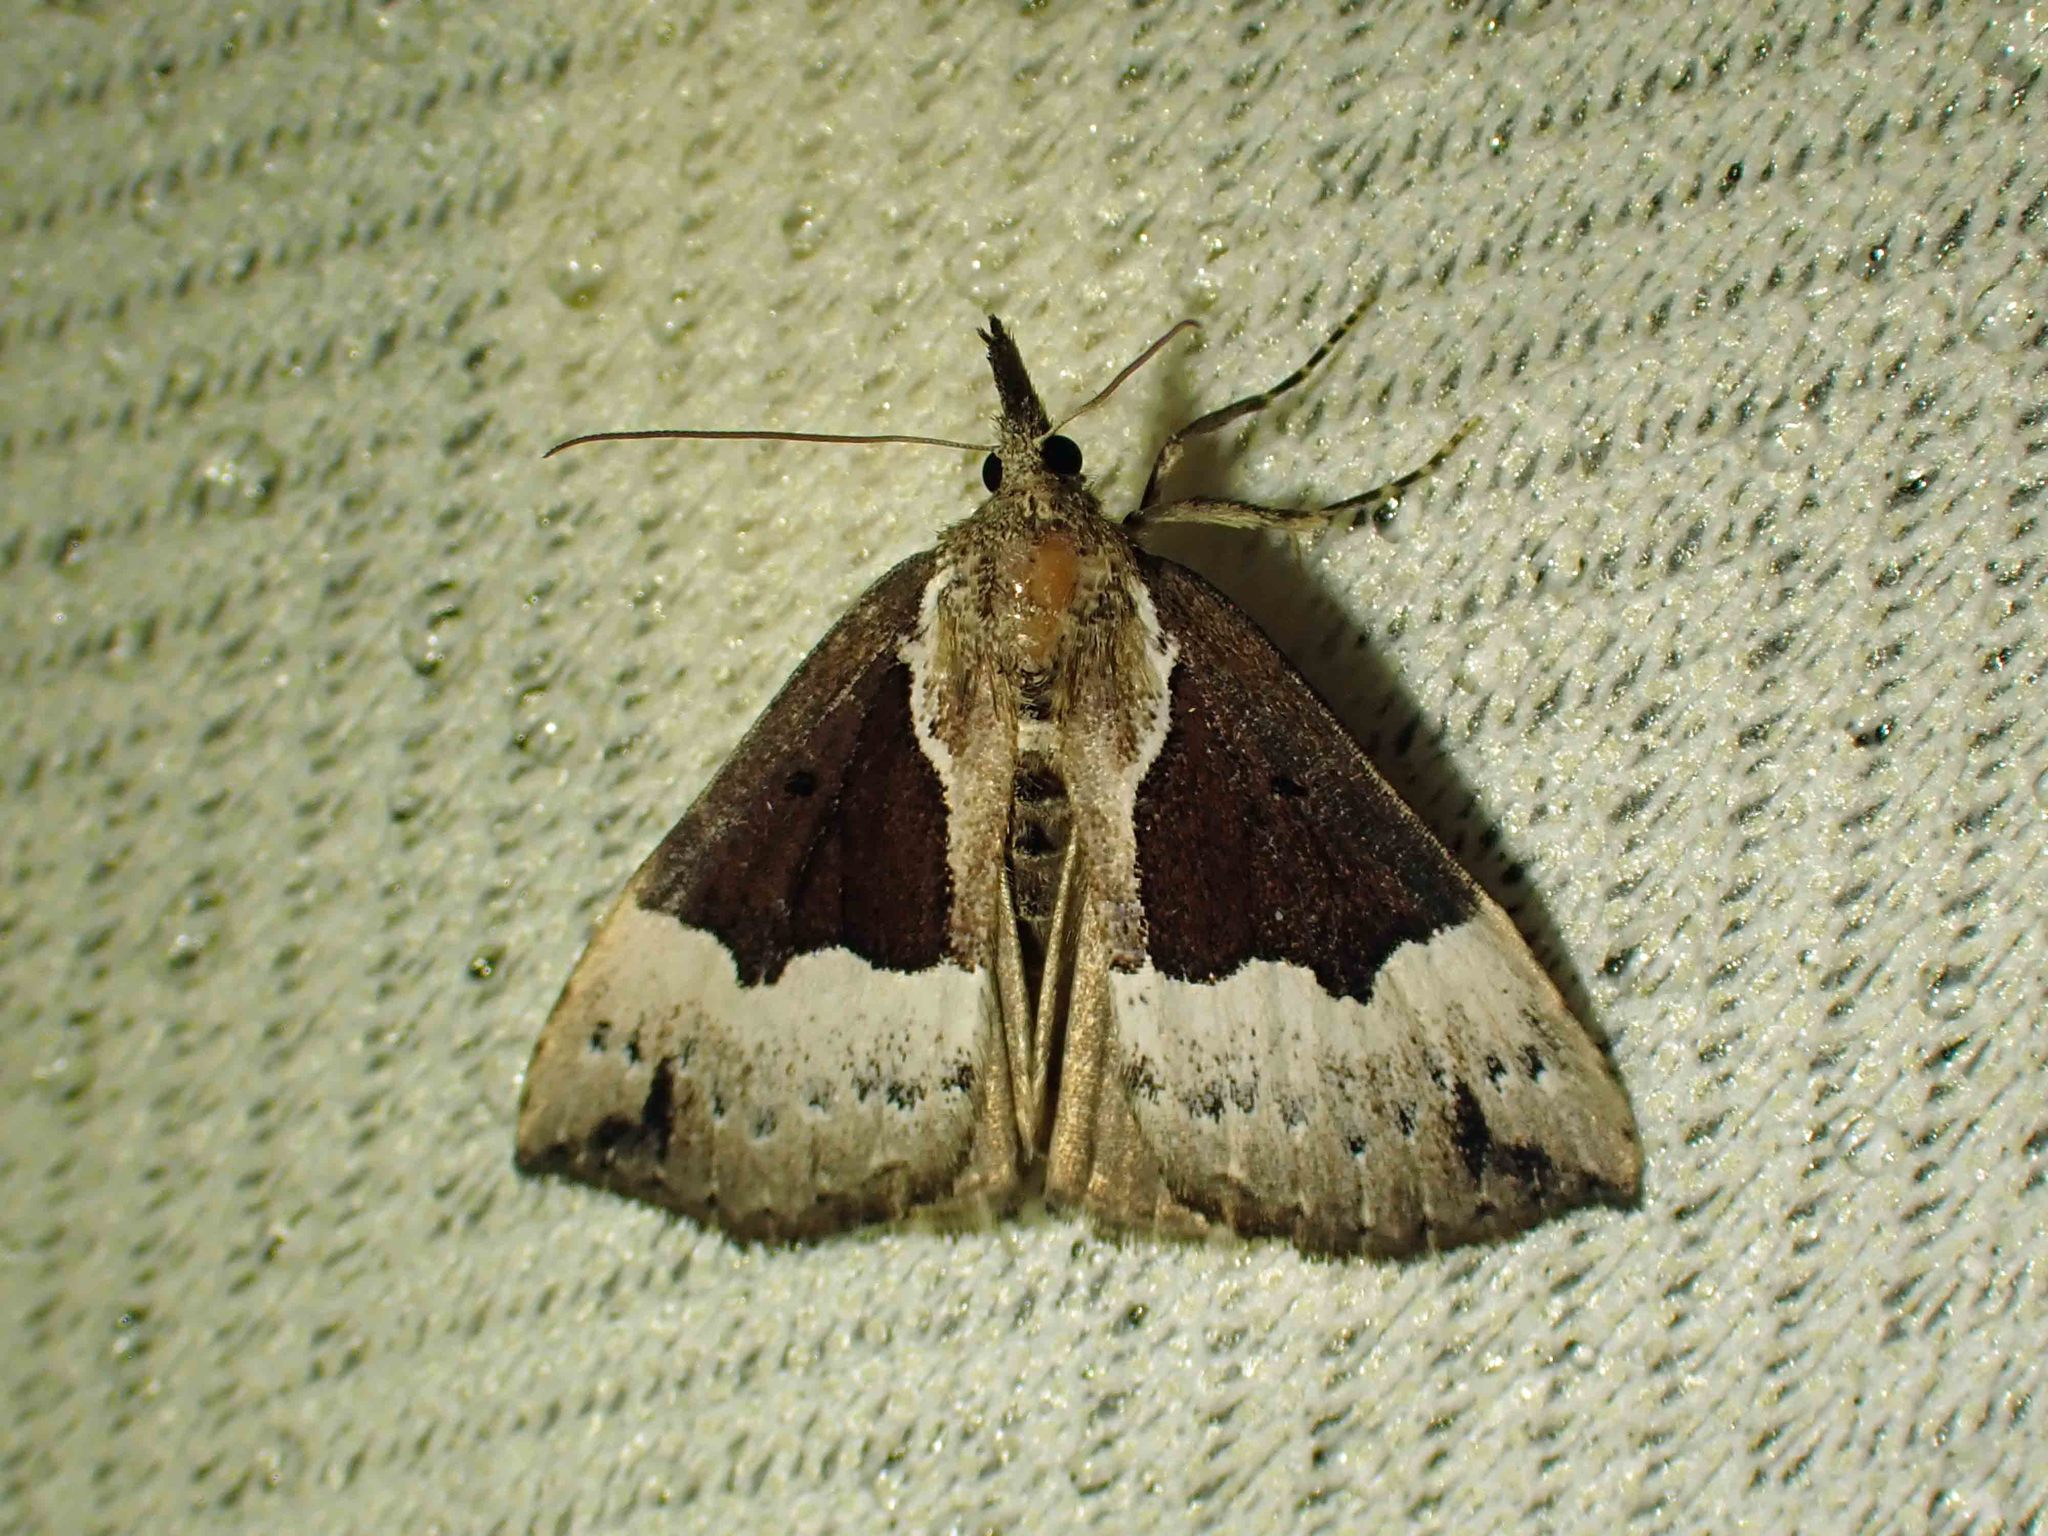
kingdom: Animalia
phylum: Arthropoda
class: Insecta
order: Lepidoptera
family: Erebidae
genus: Hypena
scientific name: Hypena bijugalis
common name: Dimorphic bomolocha moth
